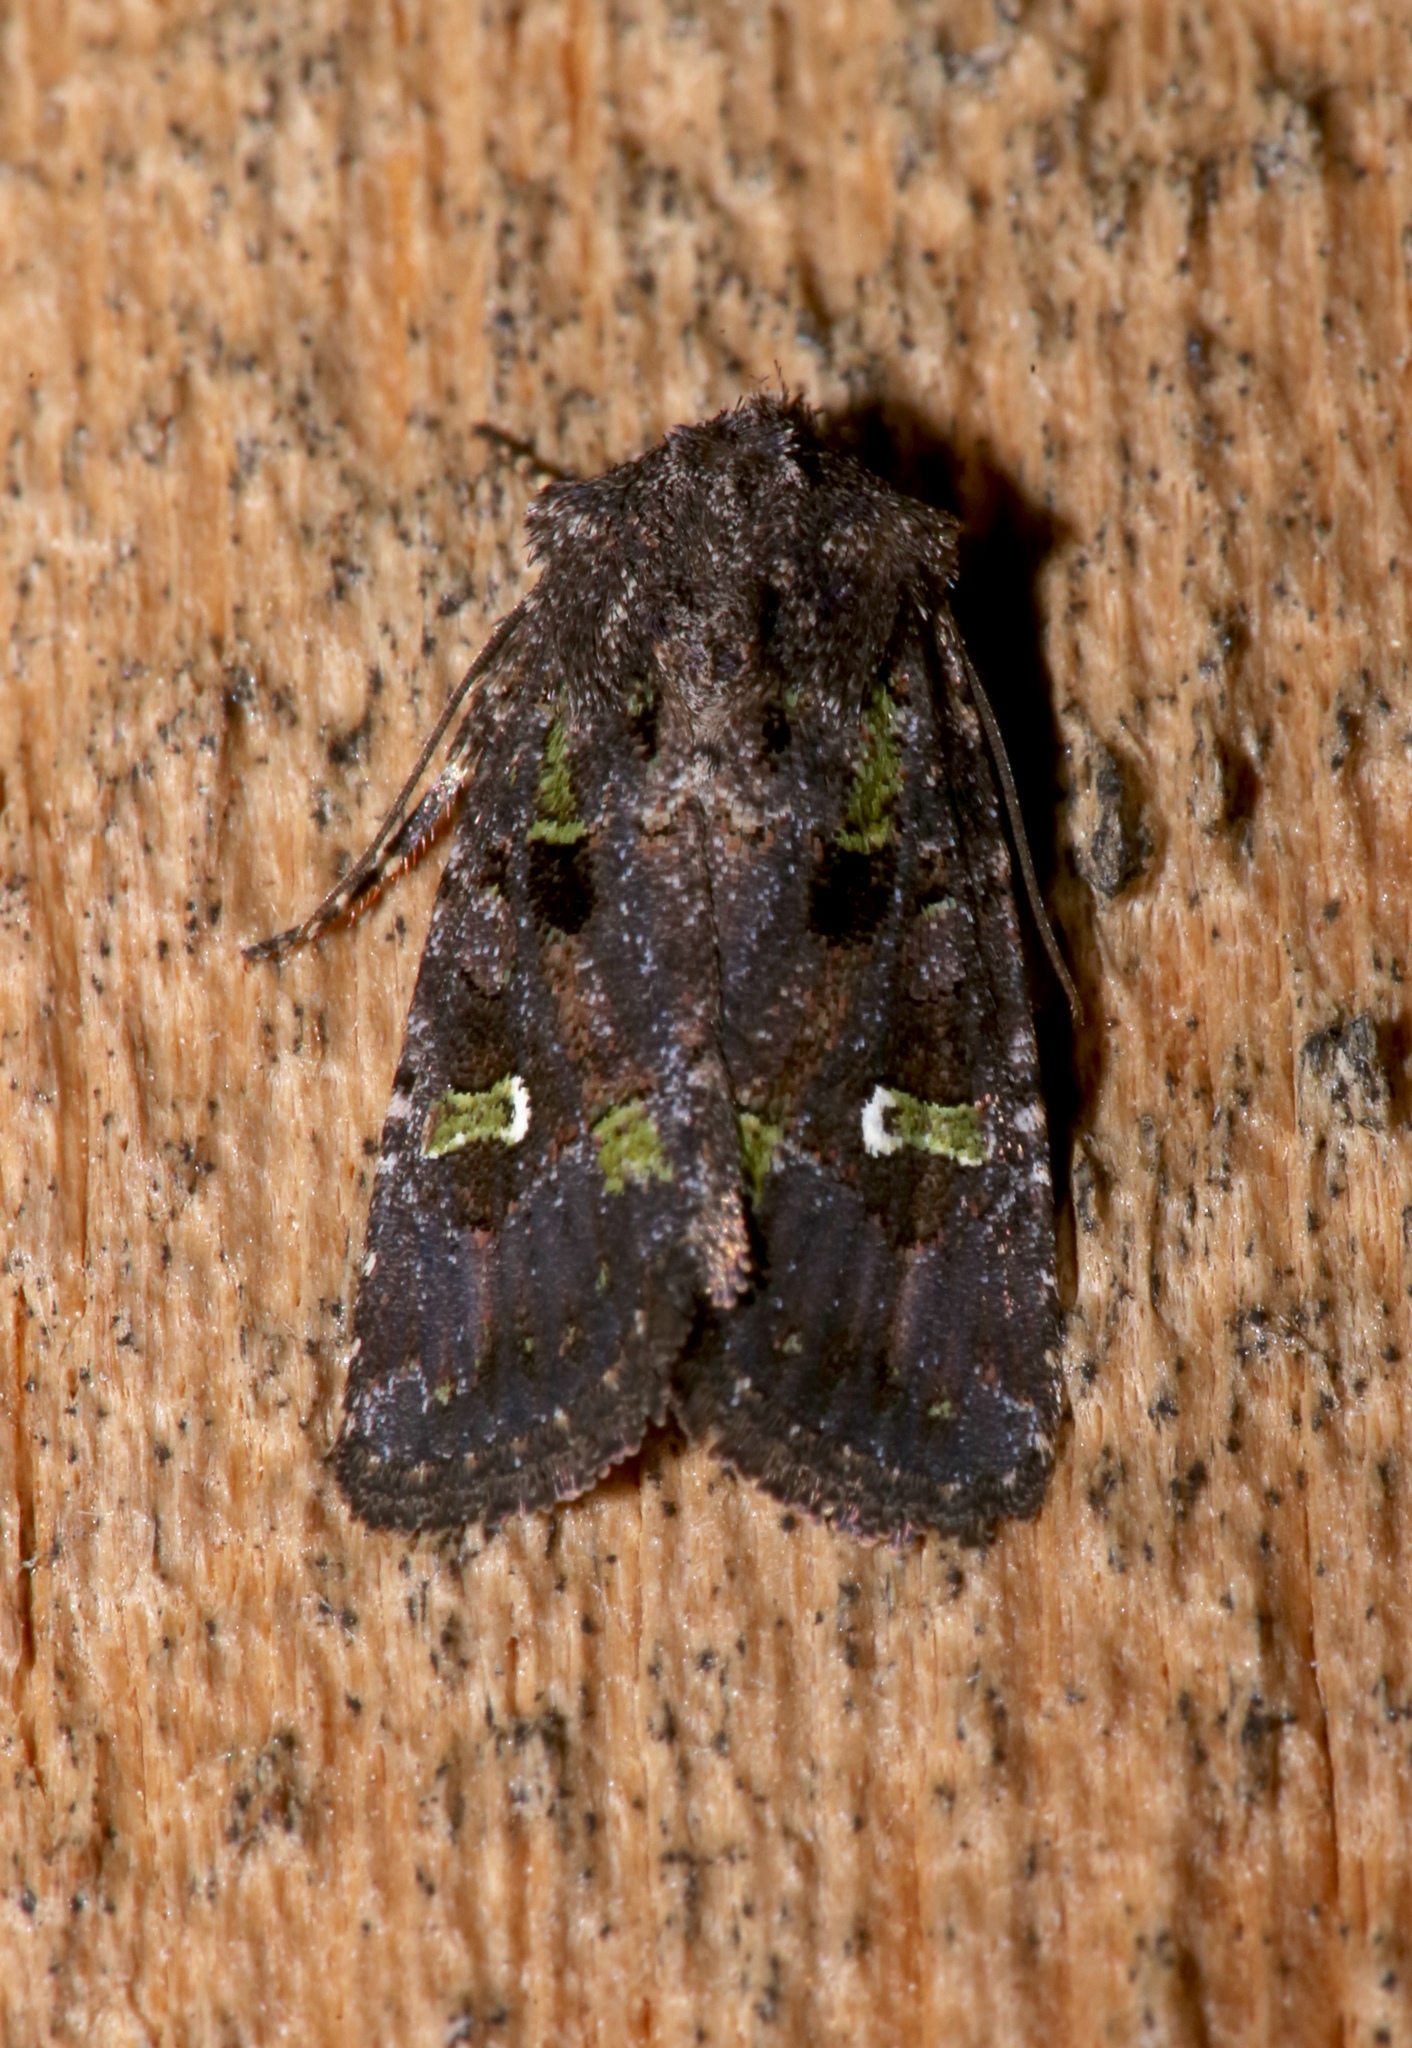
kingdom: Animalia
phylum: Arthropoda
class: Insecta
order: Lepidoptera
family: Noctuidae
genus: Lacinipolia
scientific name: Lacinipolia renigera
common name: Kidney-spotted minor
